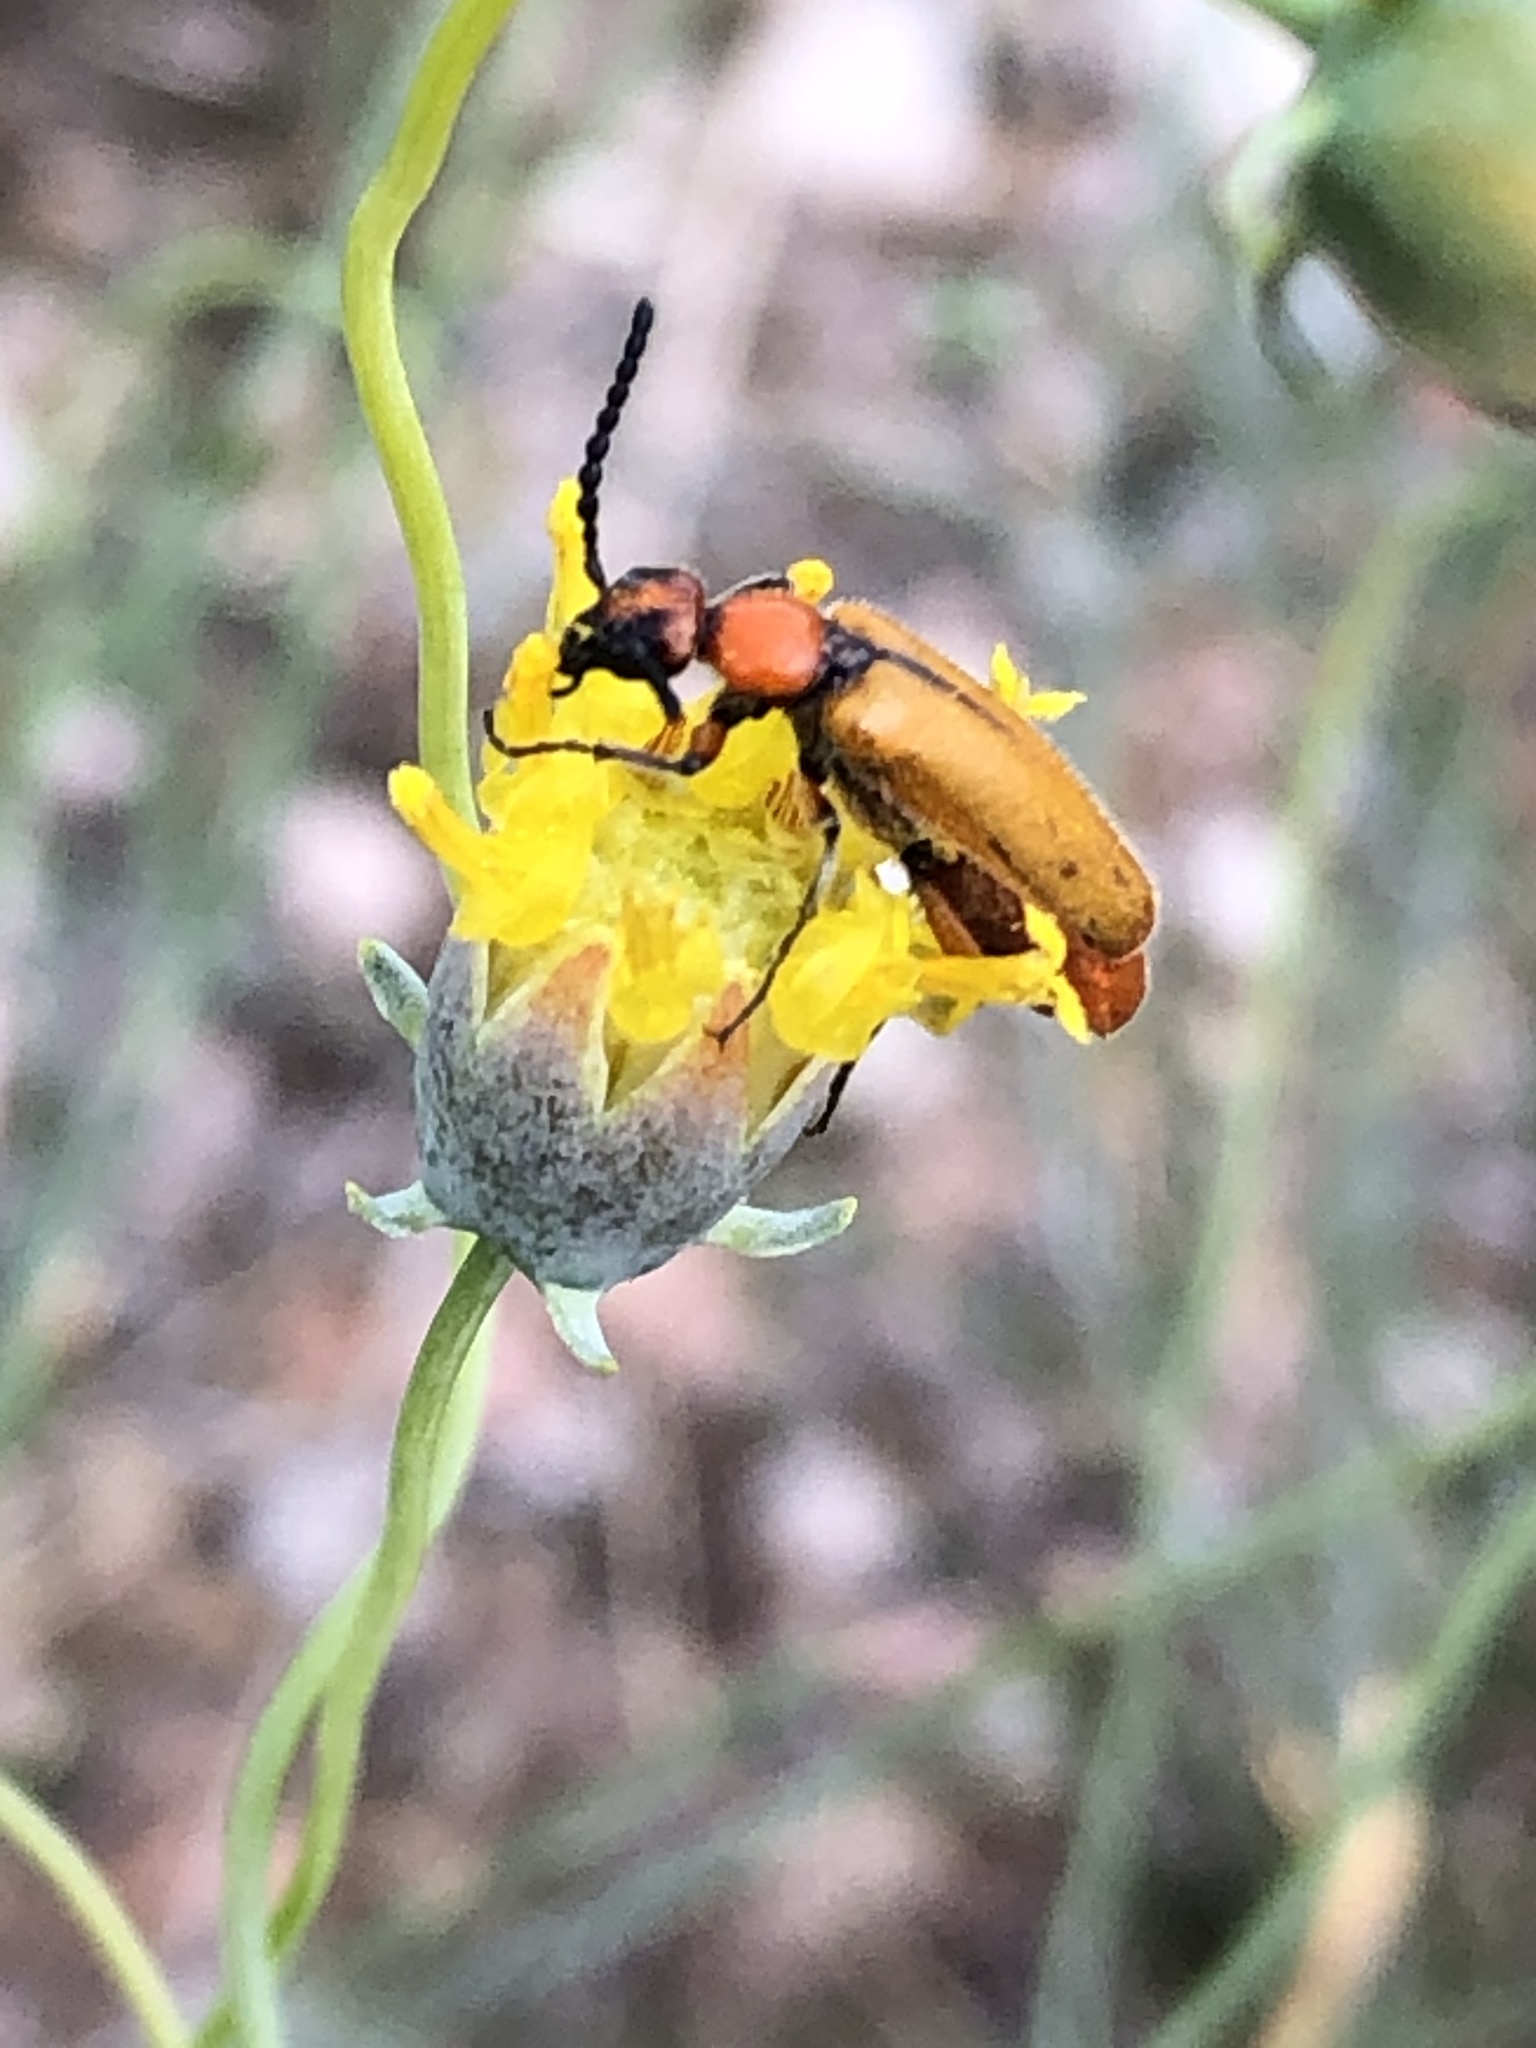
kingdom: Animalia
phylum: Arthropoda
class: Insecta
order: Coleoptera
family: Meloidae
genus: Lytta
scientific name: Lytta biguttata
